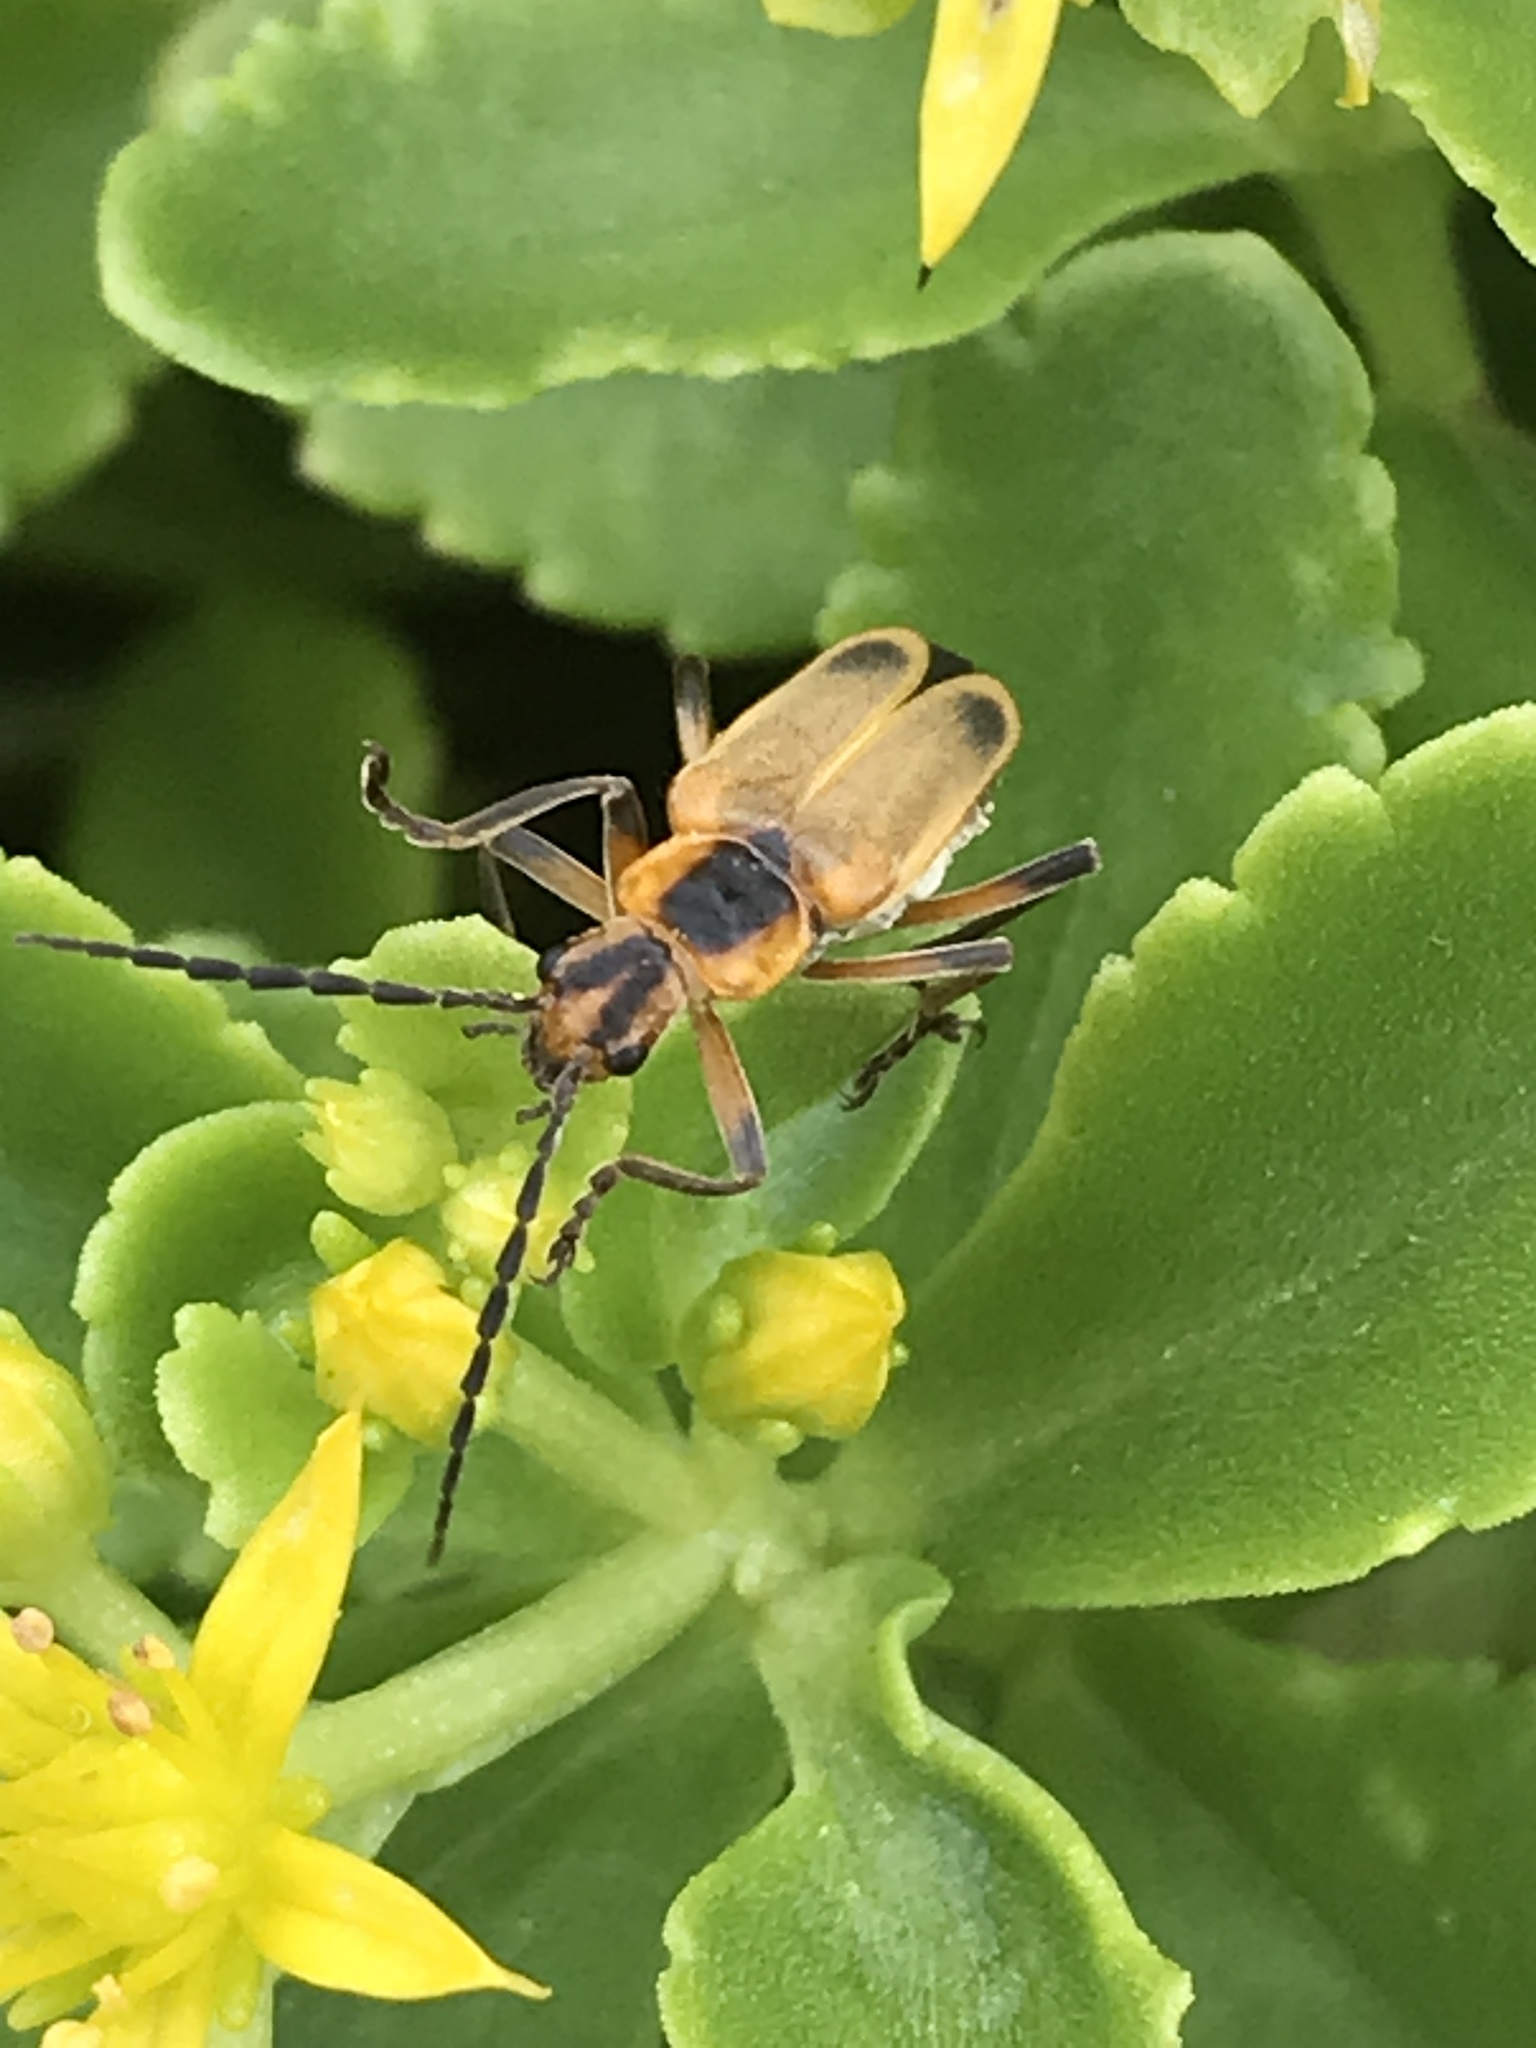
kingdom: Animalia
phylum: Arthropoda
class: Insecta
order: Coleoptera
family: Cantharidae
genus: Chauliognathus
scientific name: Chauliognathus marginatus
